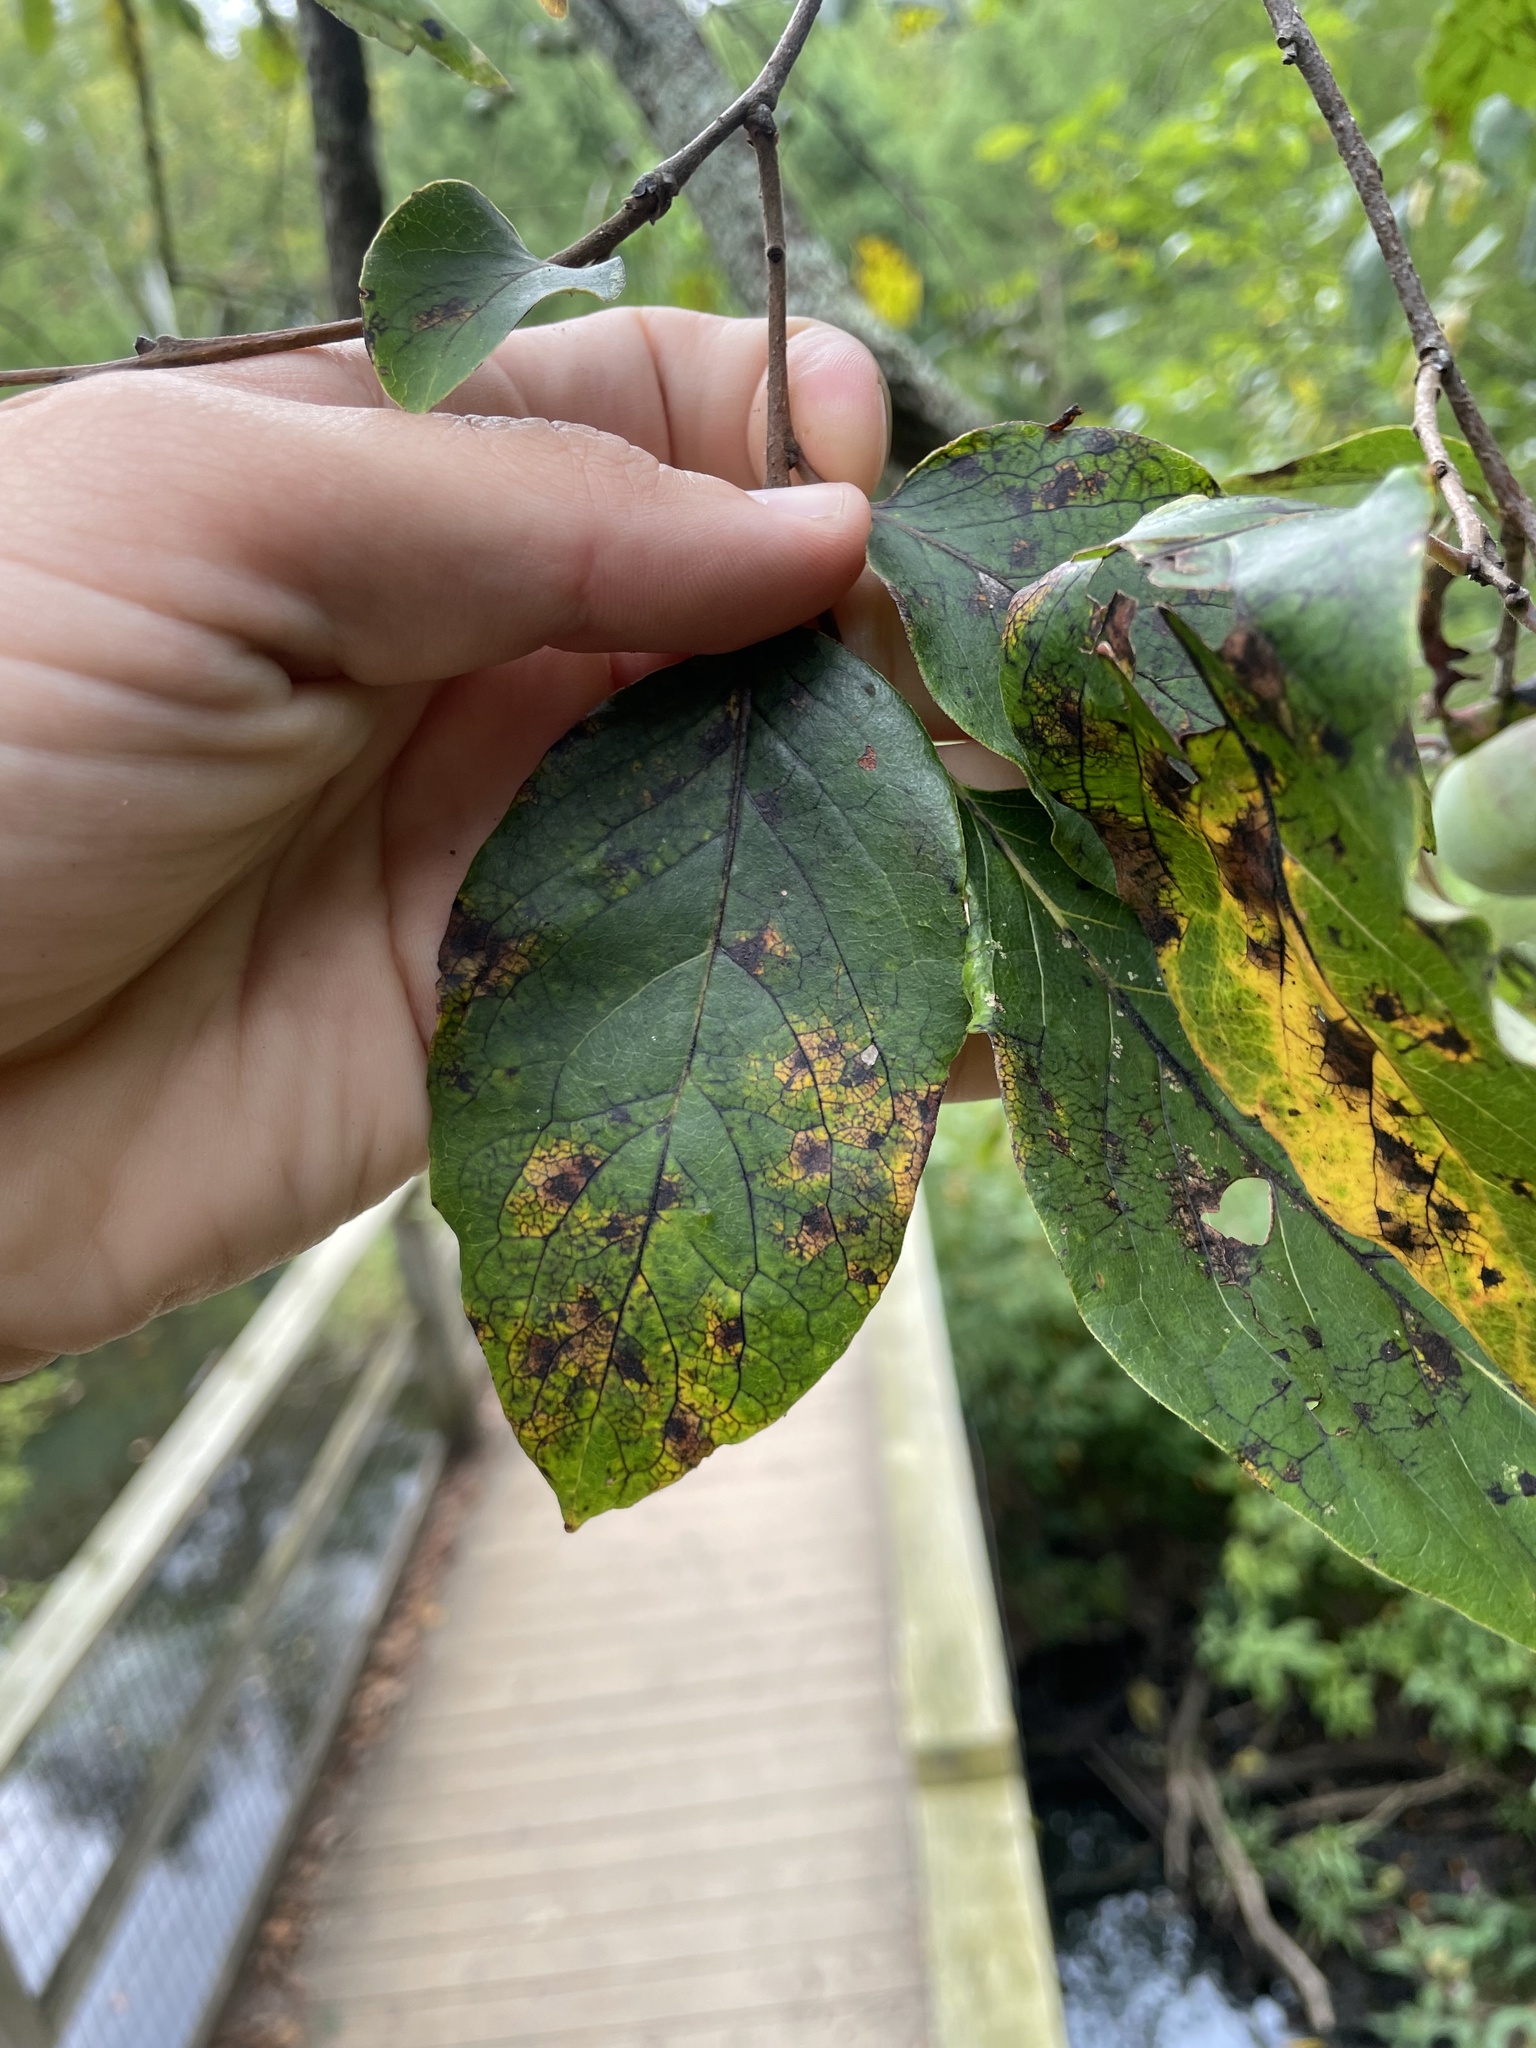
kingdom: Plantae
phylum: Tracheophyta
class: Magnoliopsida
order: Ericales
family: Ebenaceae
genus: Diospyros
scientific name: Diospyros virginiana
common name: Persimmon
